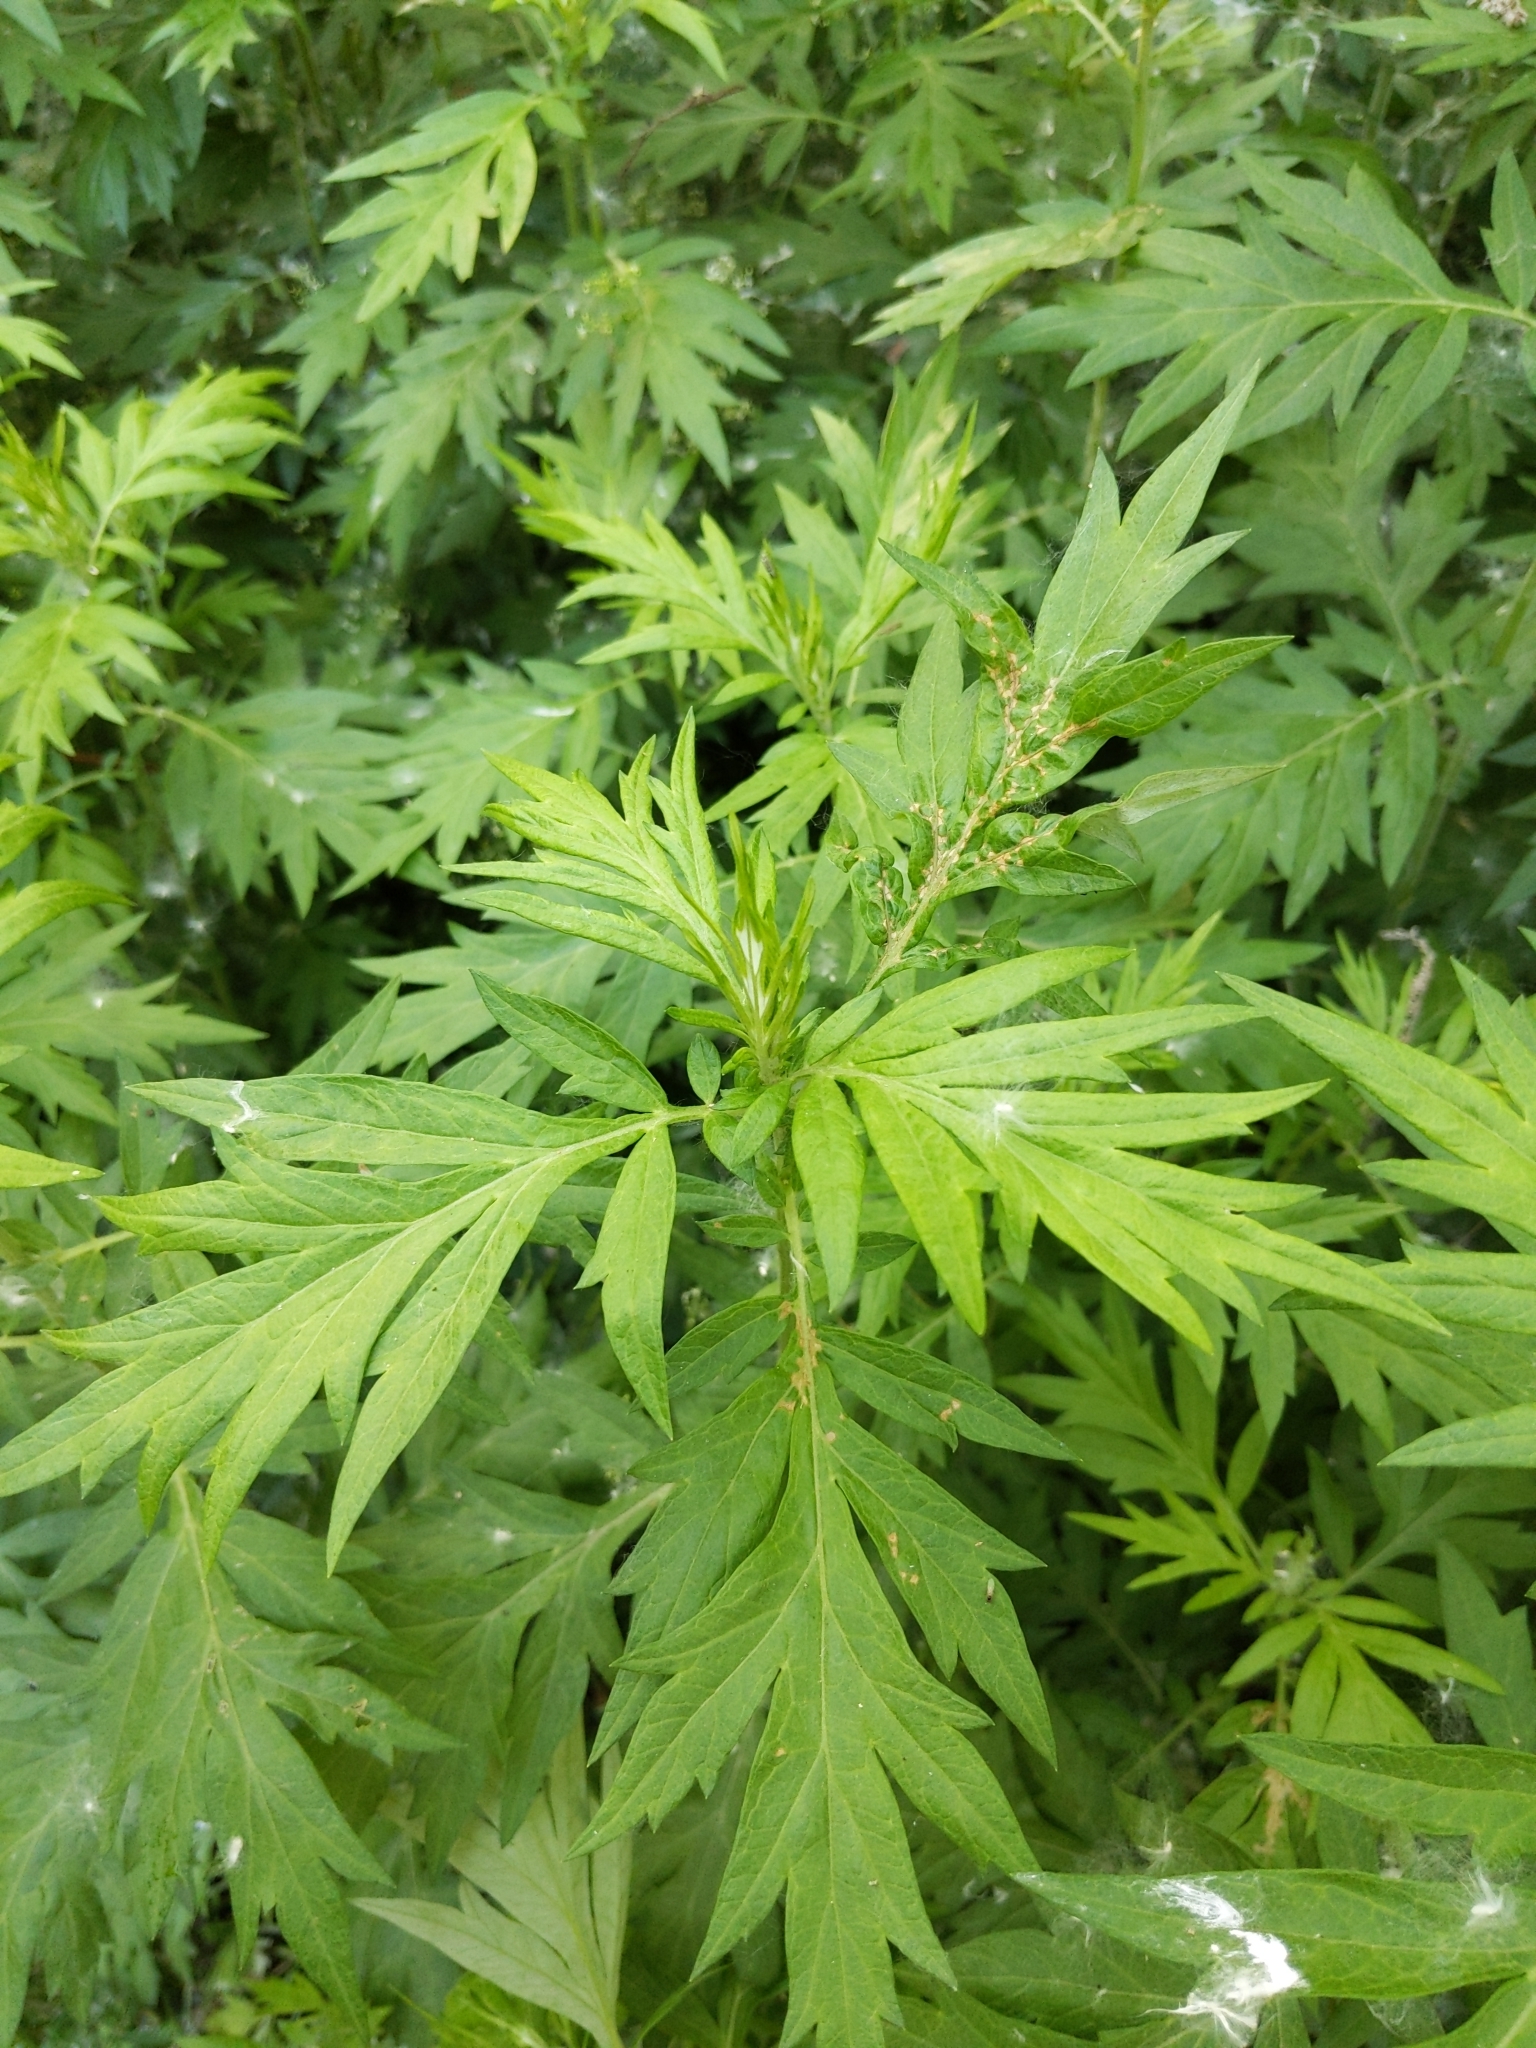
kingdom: Plantae
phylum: Tracheophyta
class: Magnoliopsida
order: Asterales
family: Asteraceae
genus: Artemisia
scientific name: Artemisia vulgaris
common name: Mugwort
